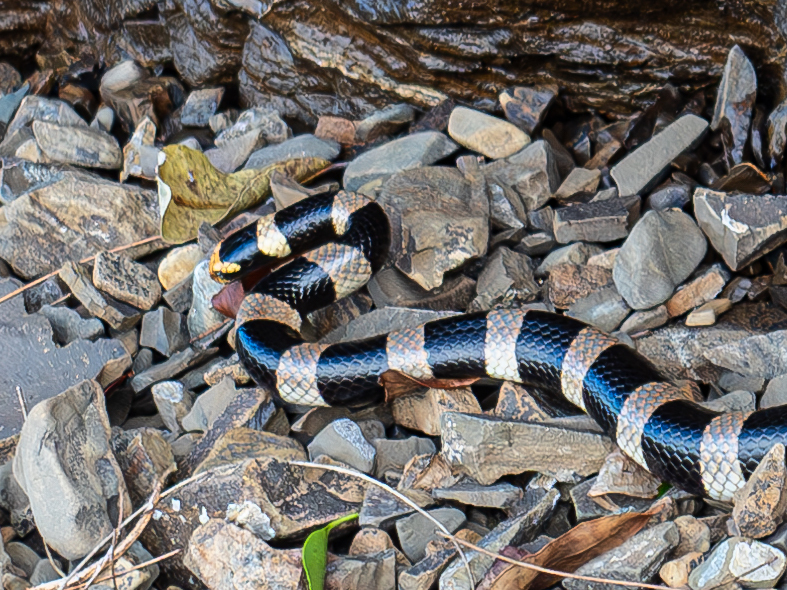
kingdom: Animalia
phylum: Chordata
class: Squamata
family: Elapidae
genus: Laticauda
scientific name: Laticauda saintgironsi
